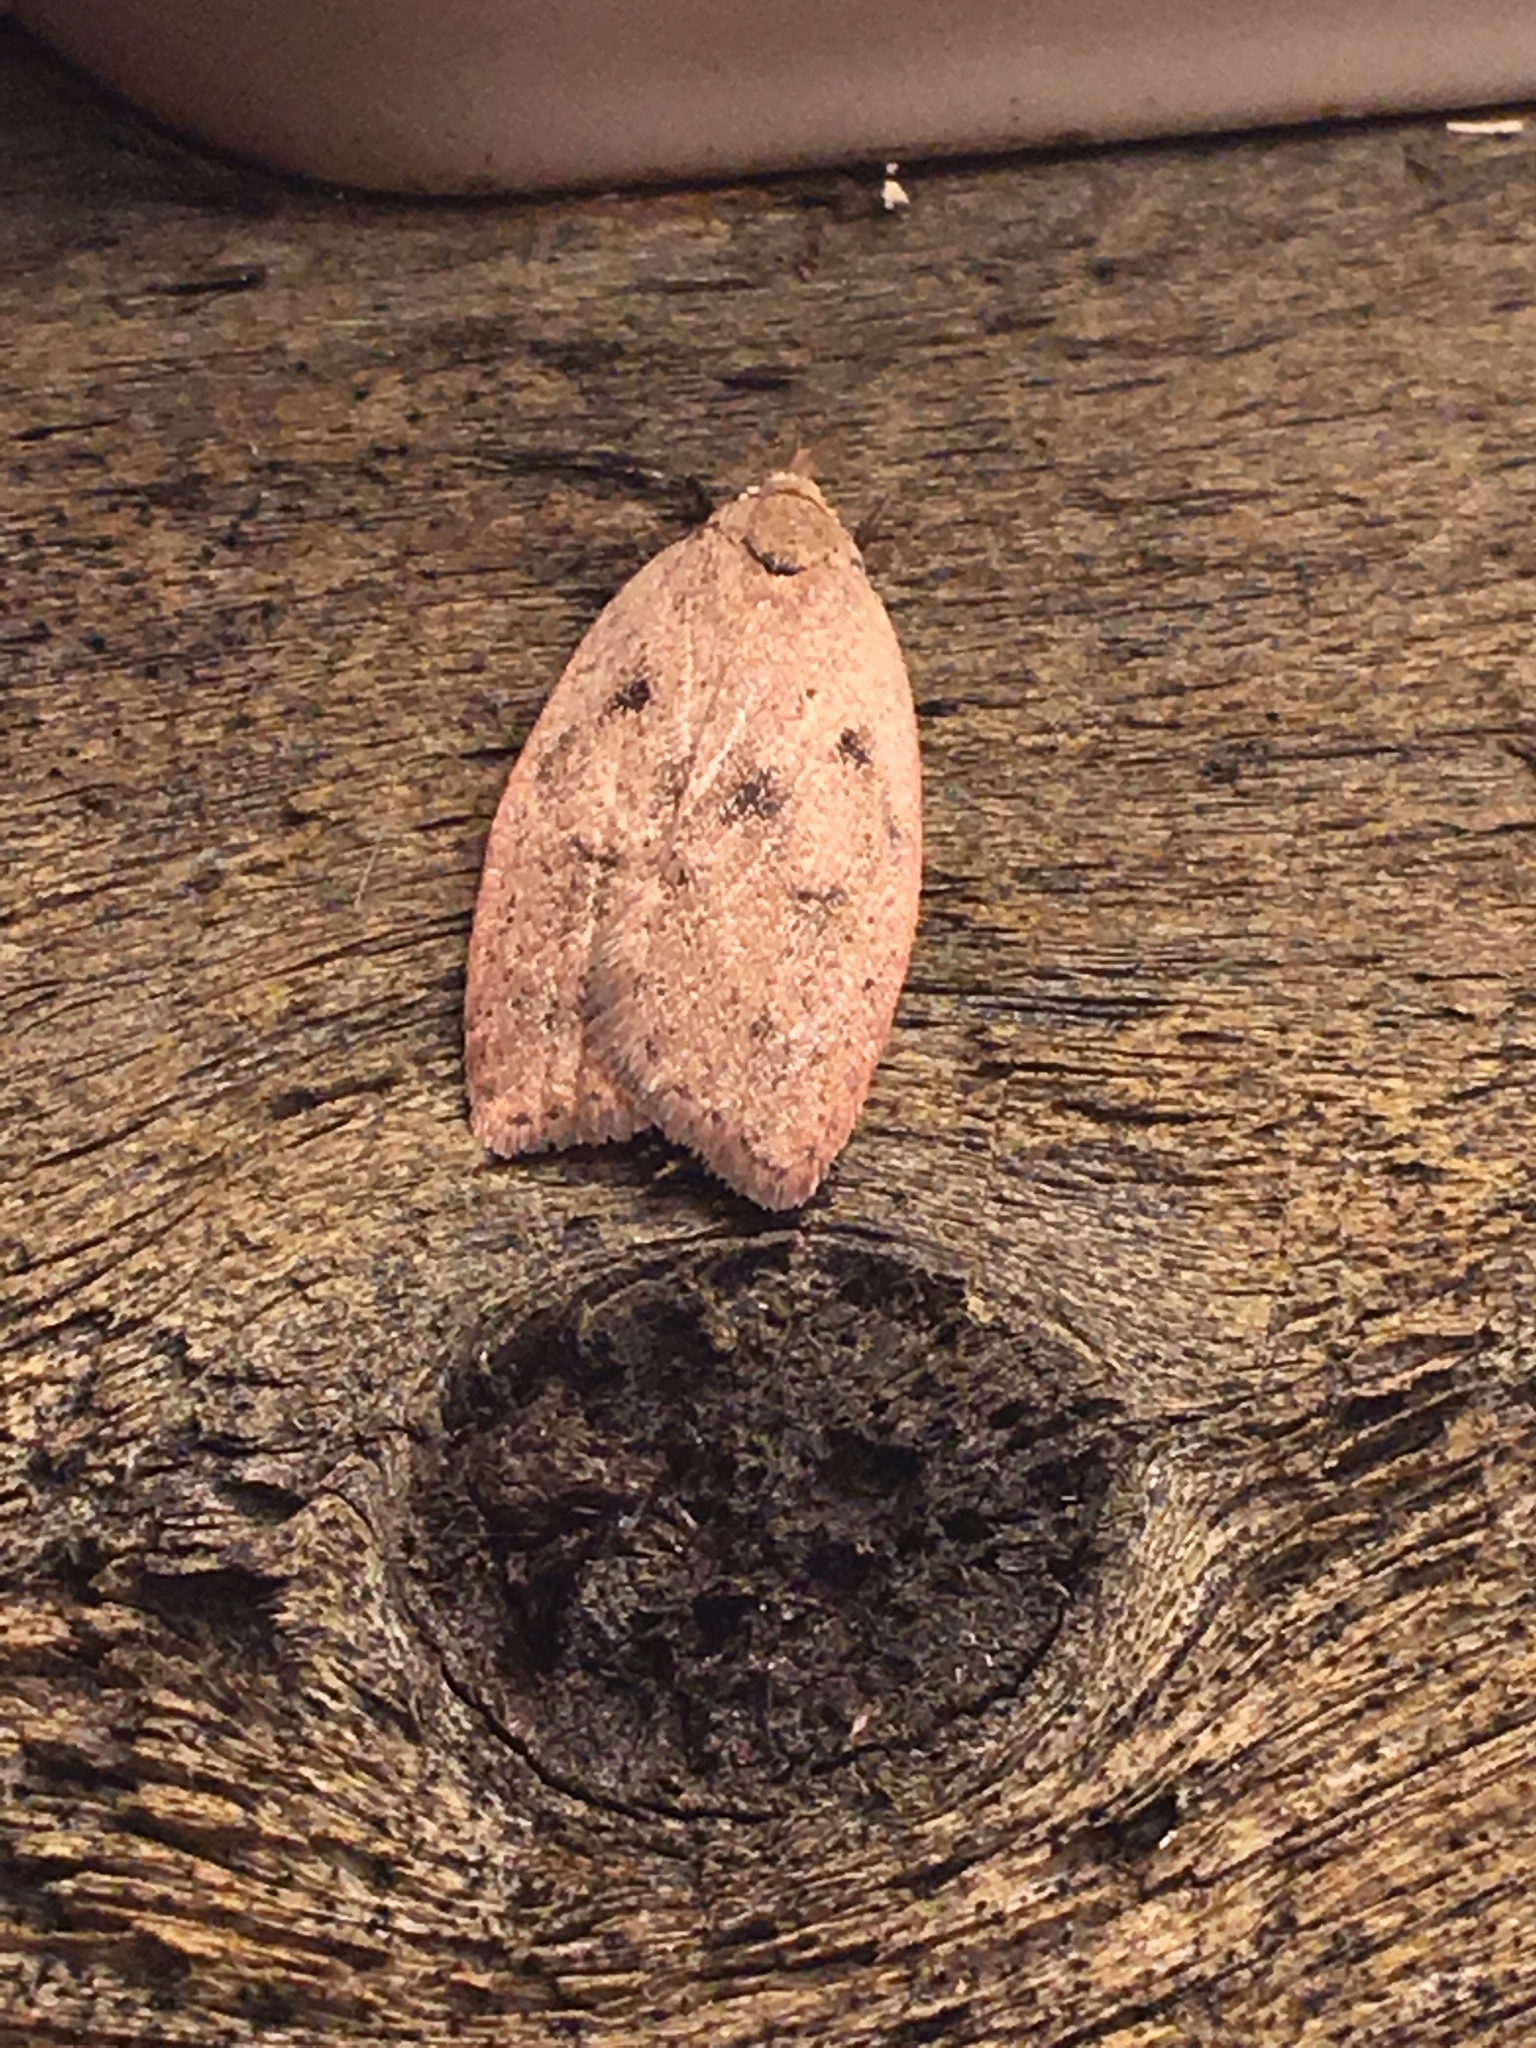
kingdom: Animalia
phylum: Arthropoda
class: Insecta
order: Lepidoptera
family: Peleopodidae
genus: Machimia
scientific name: Machimia tentoriferella
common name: Gold-striped leaftier moth
